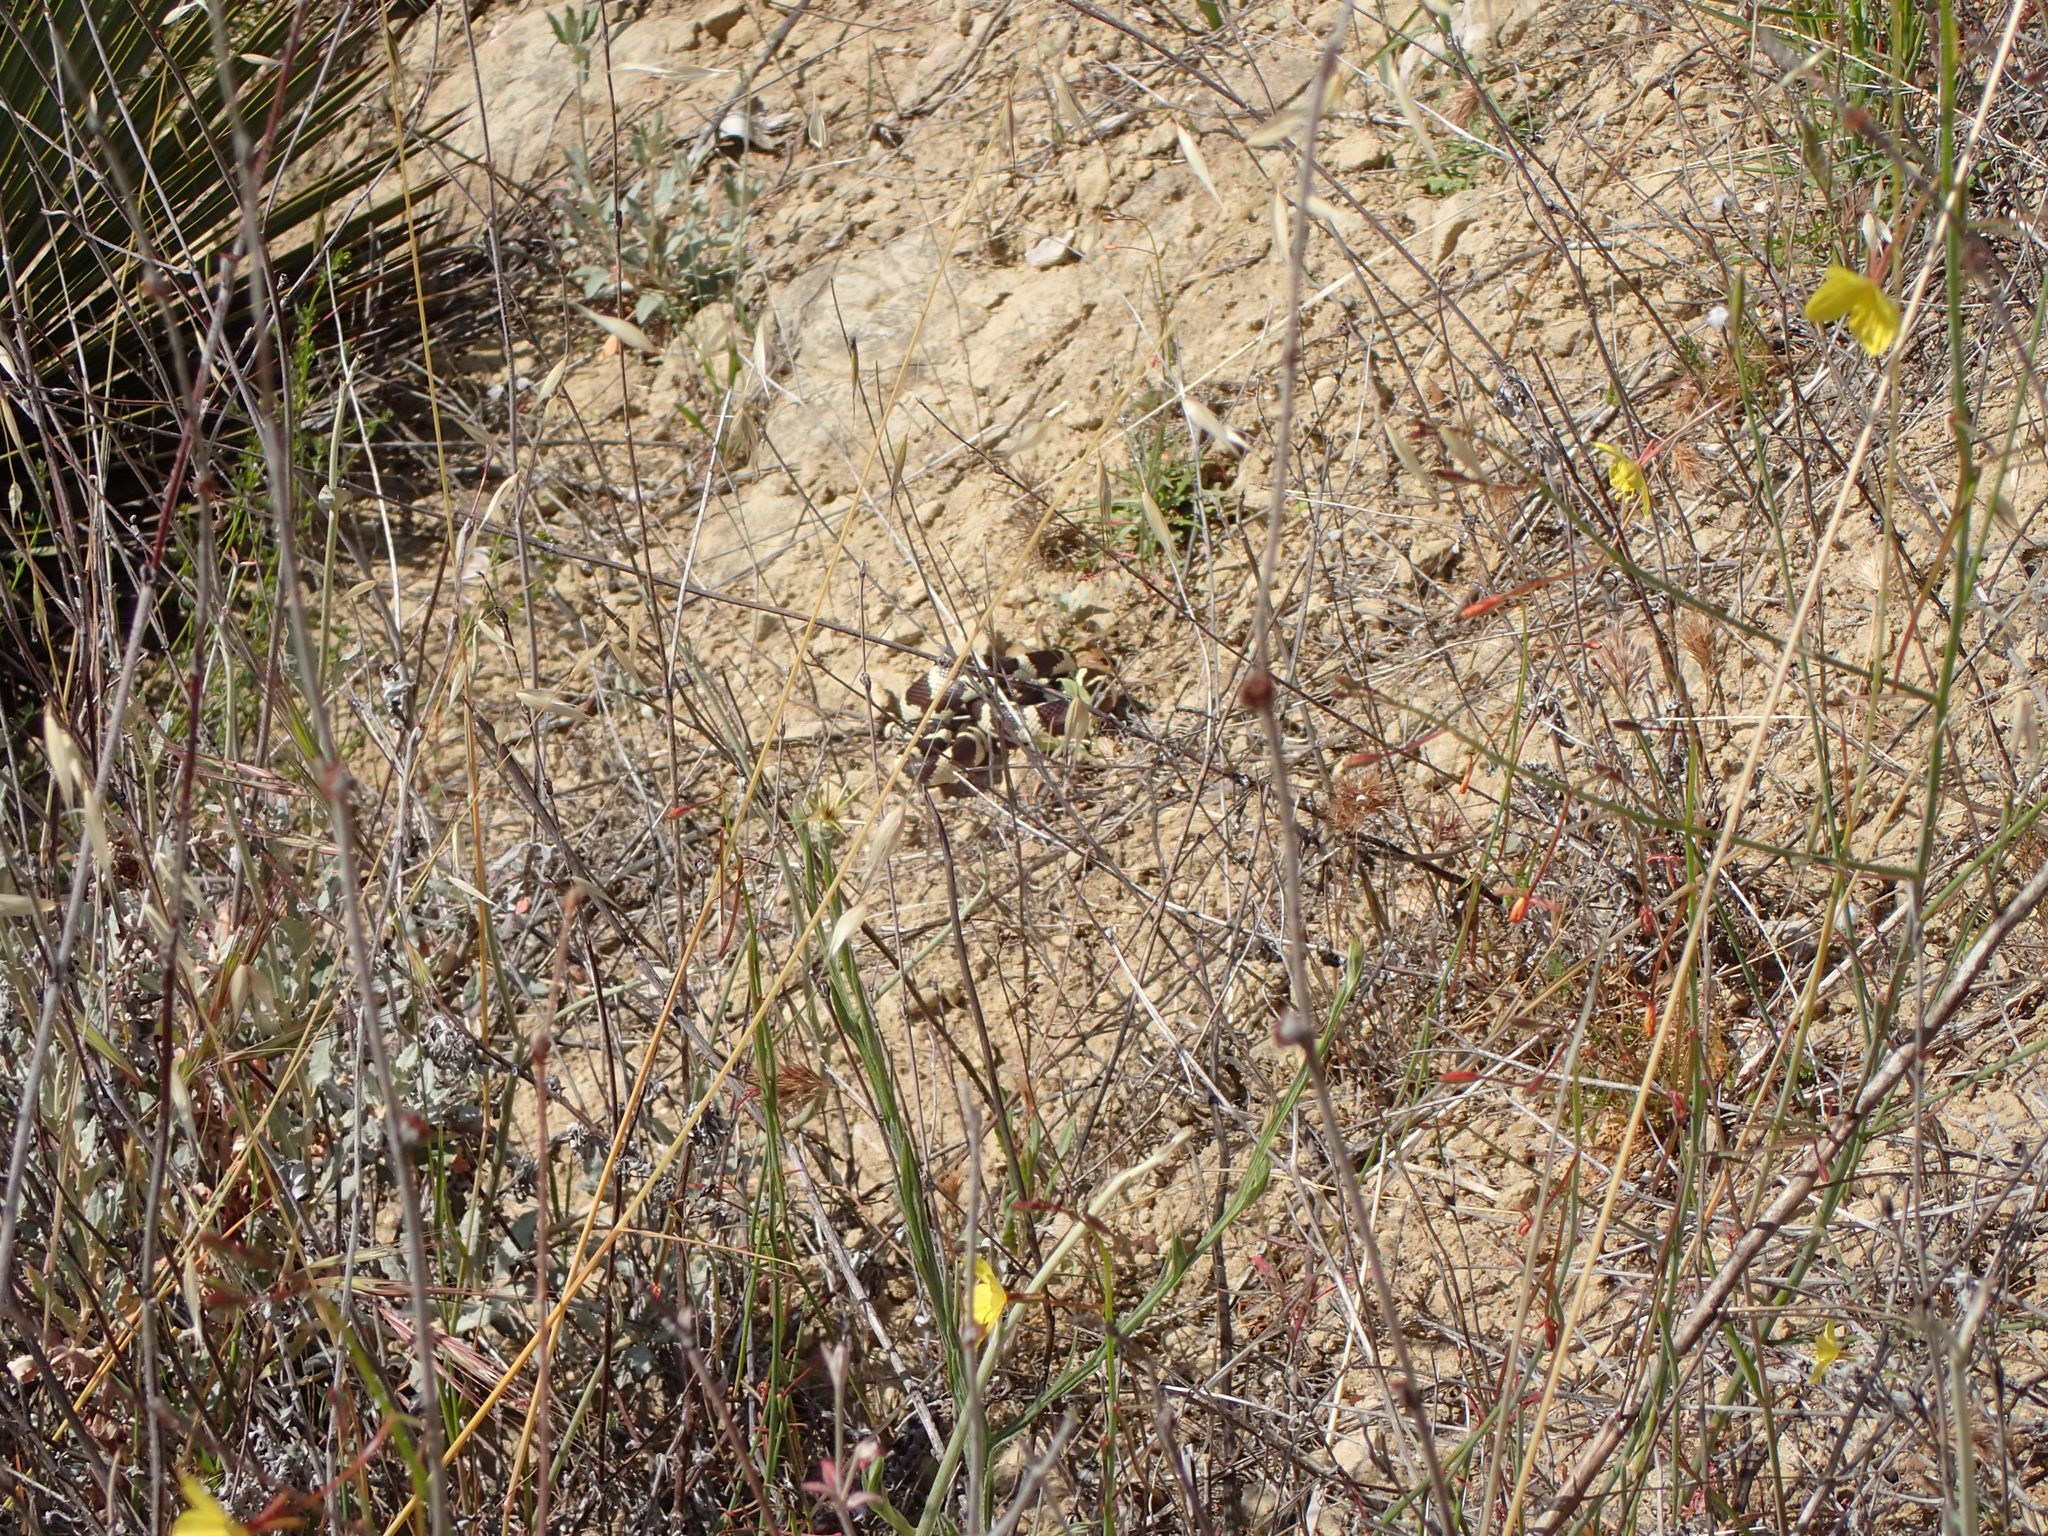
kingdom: Animalia
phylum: Chordata
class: Squamata
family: Colubridae
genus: Lampropeltis
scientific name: Lampropeltis californiae
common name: California kingsnake
